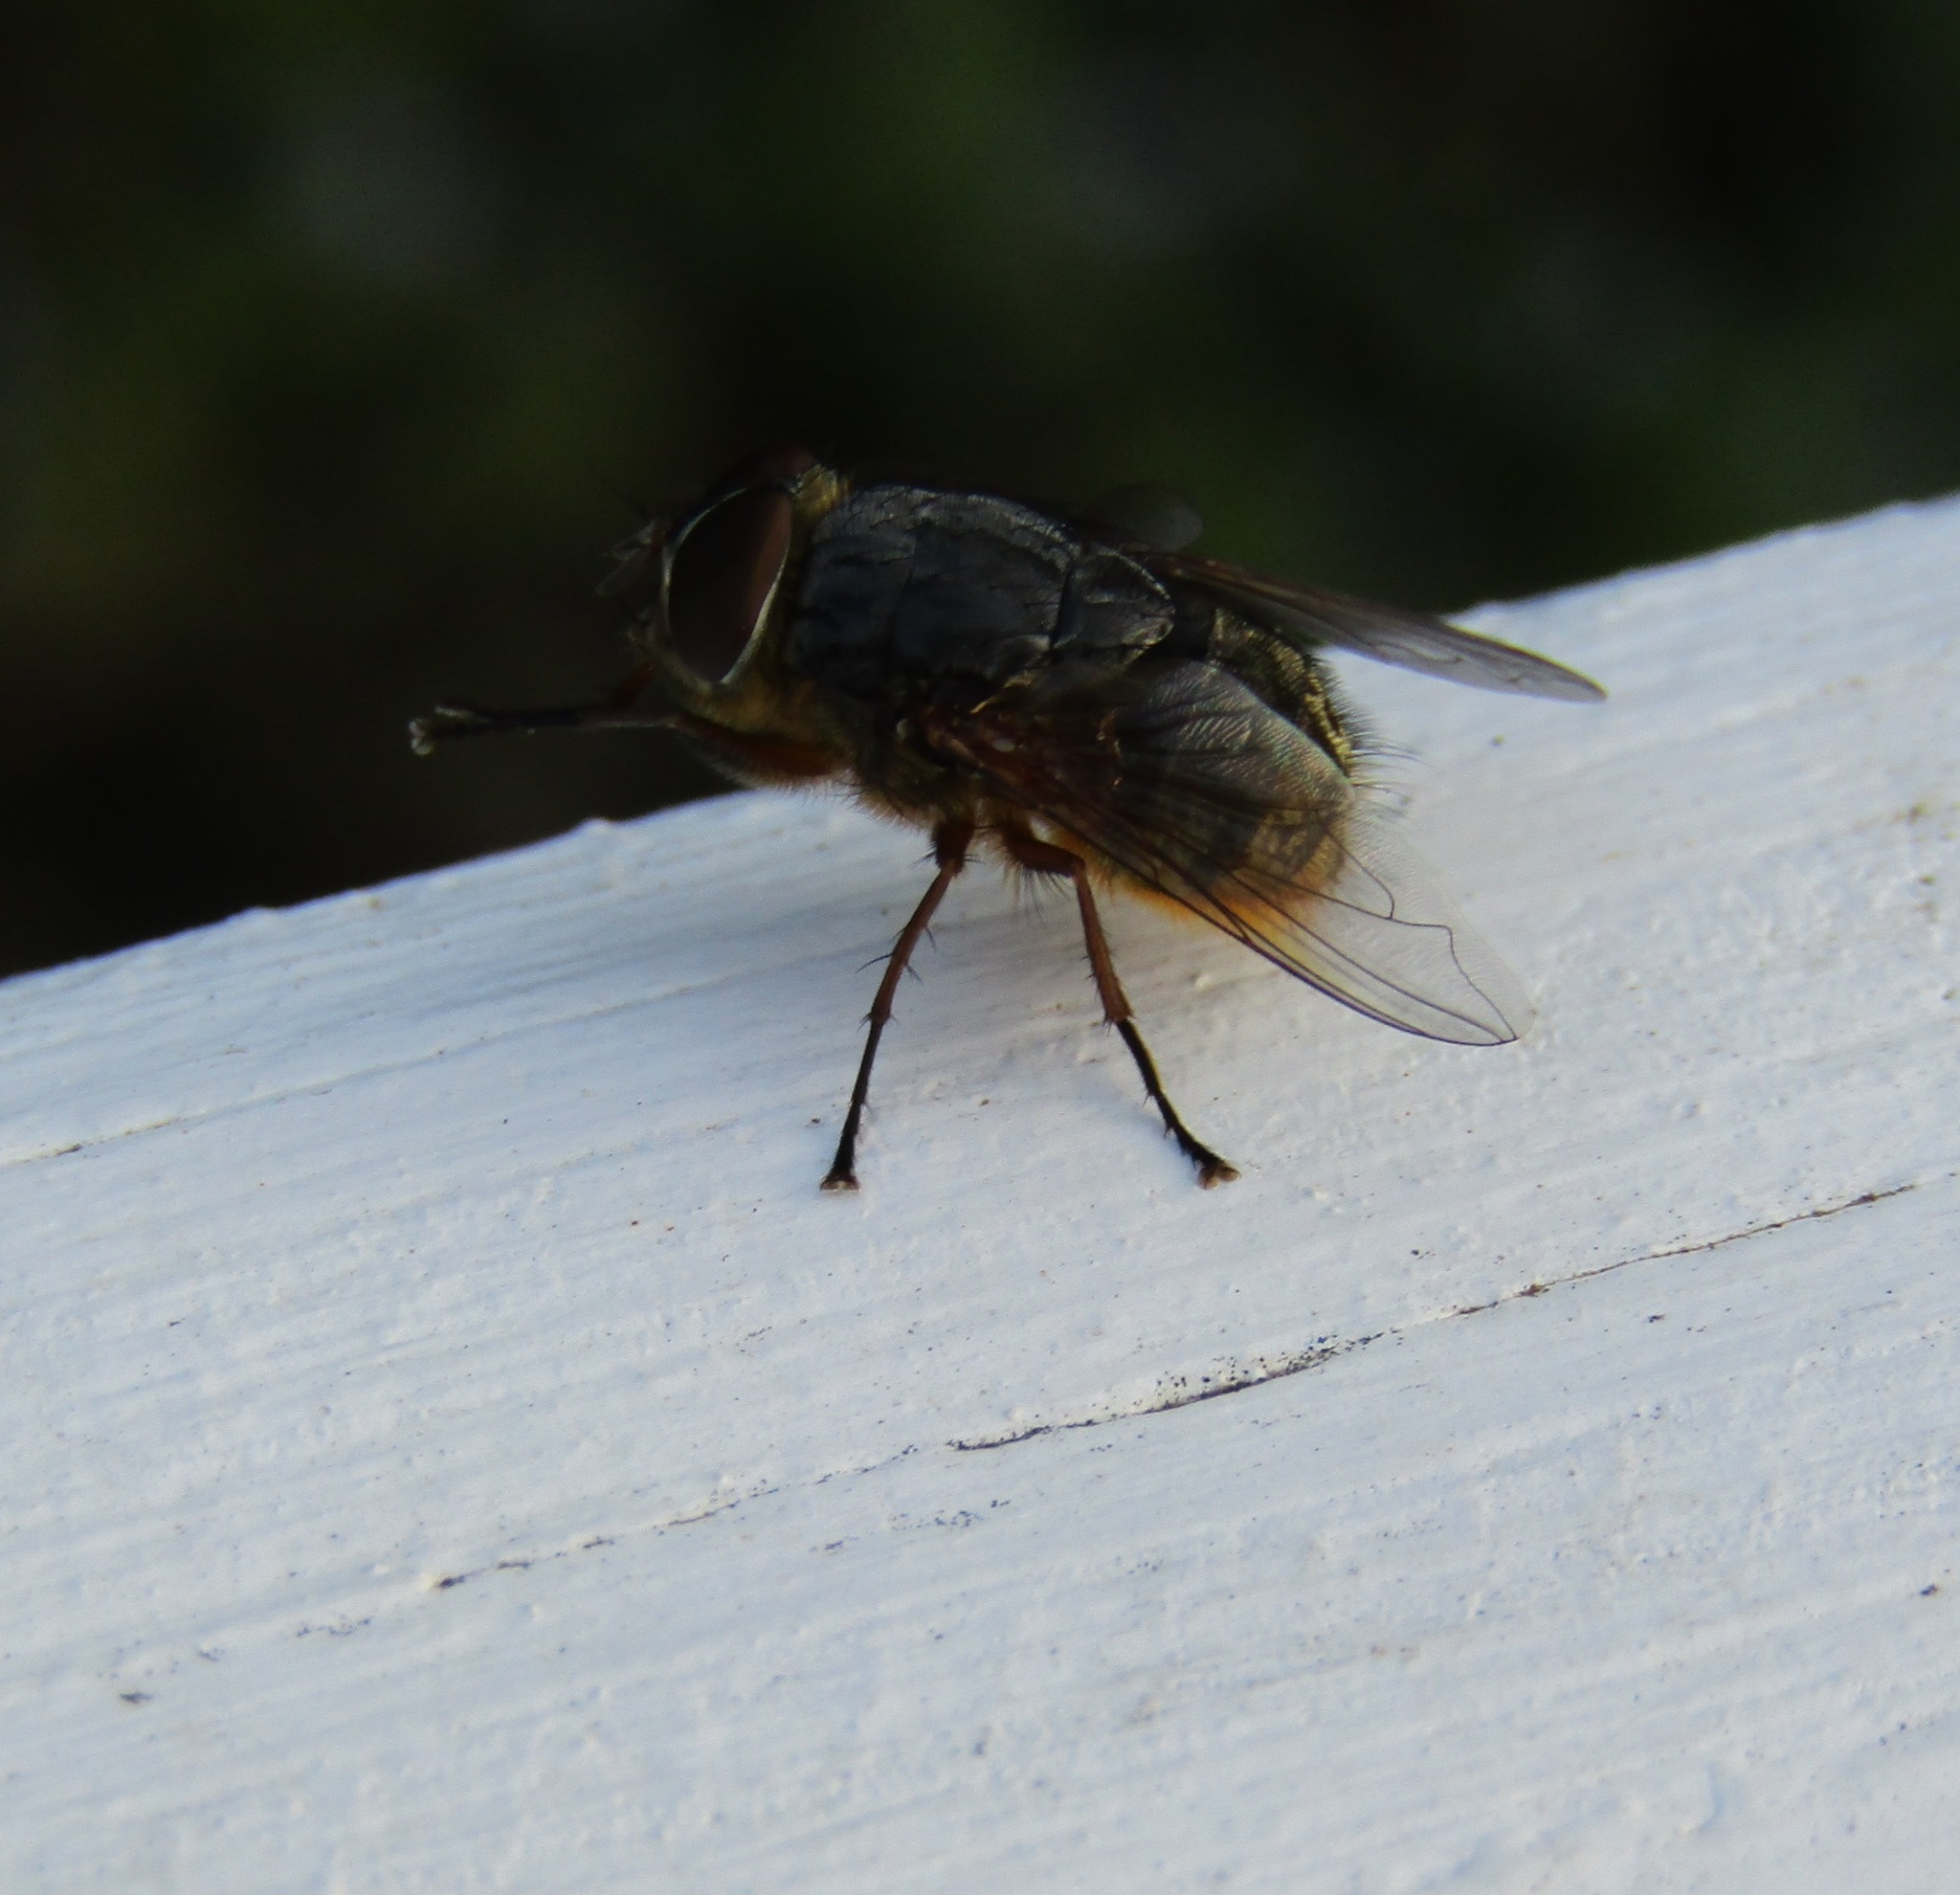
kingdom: Animalia
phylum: Arthropoda
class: Insecta
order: Diptera
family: Calliphoridae
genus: Calliphora
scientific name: Calliphora stygia
